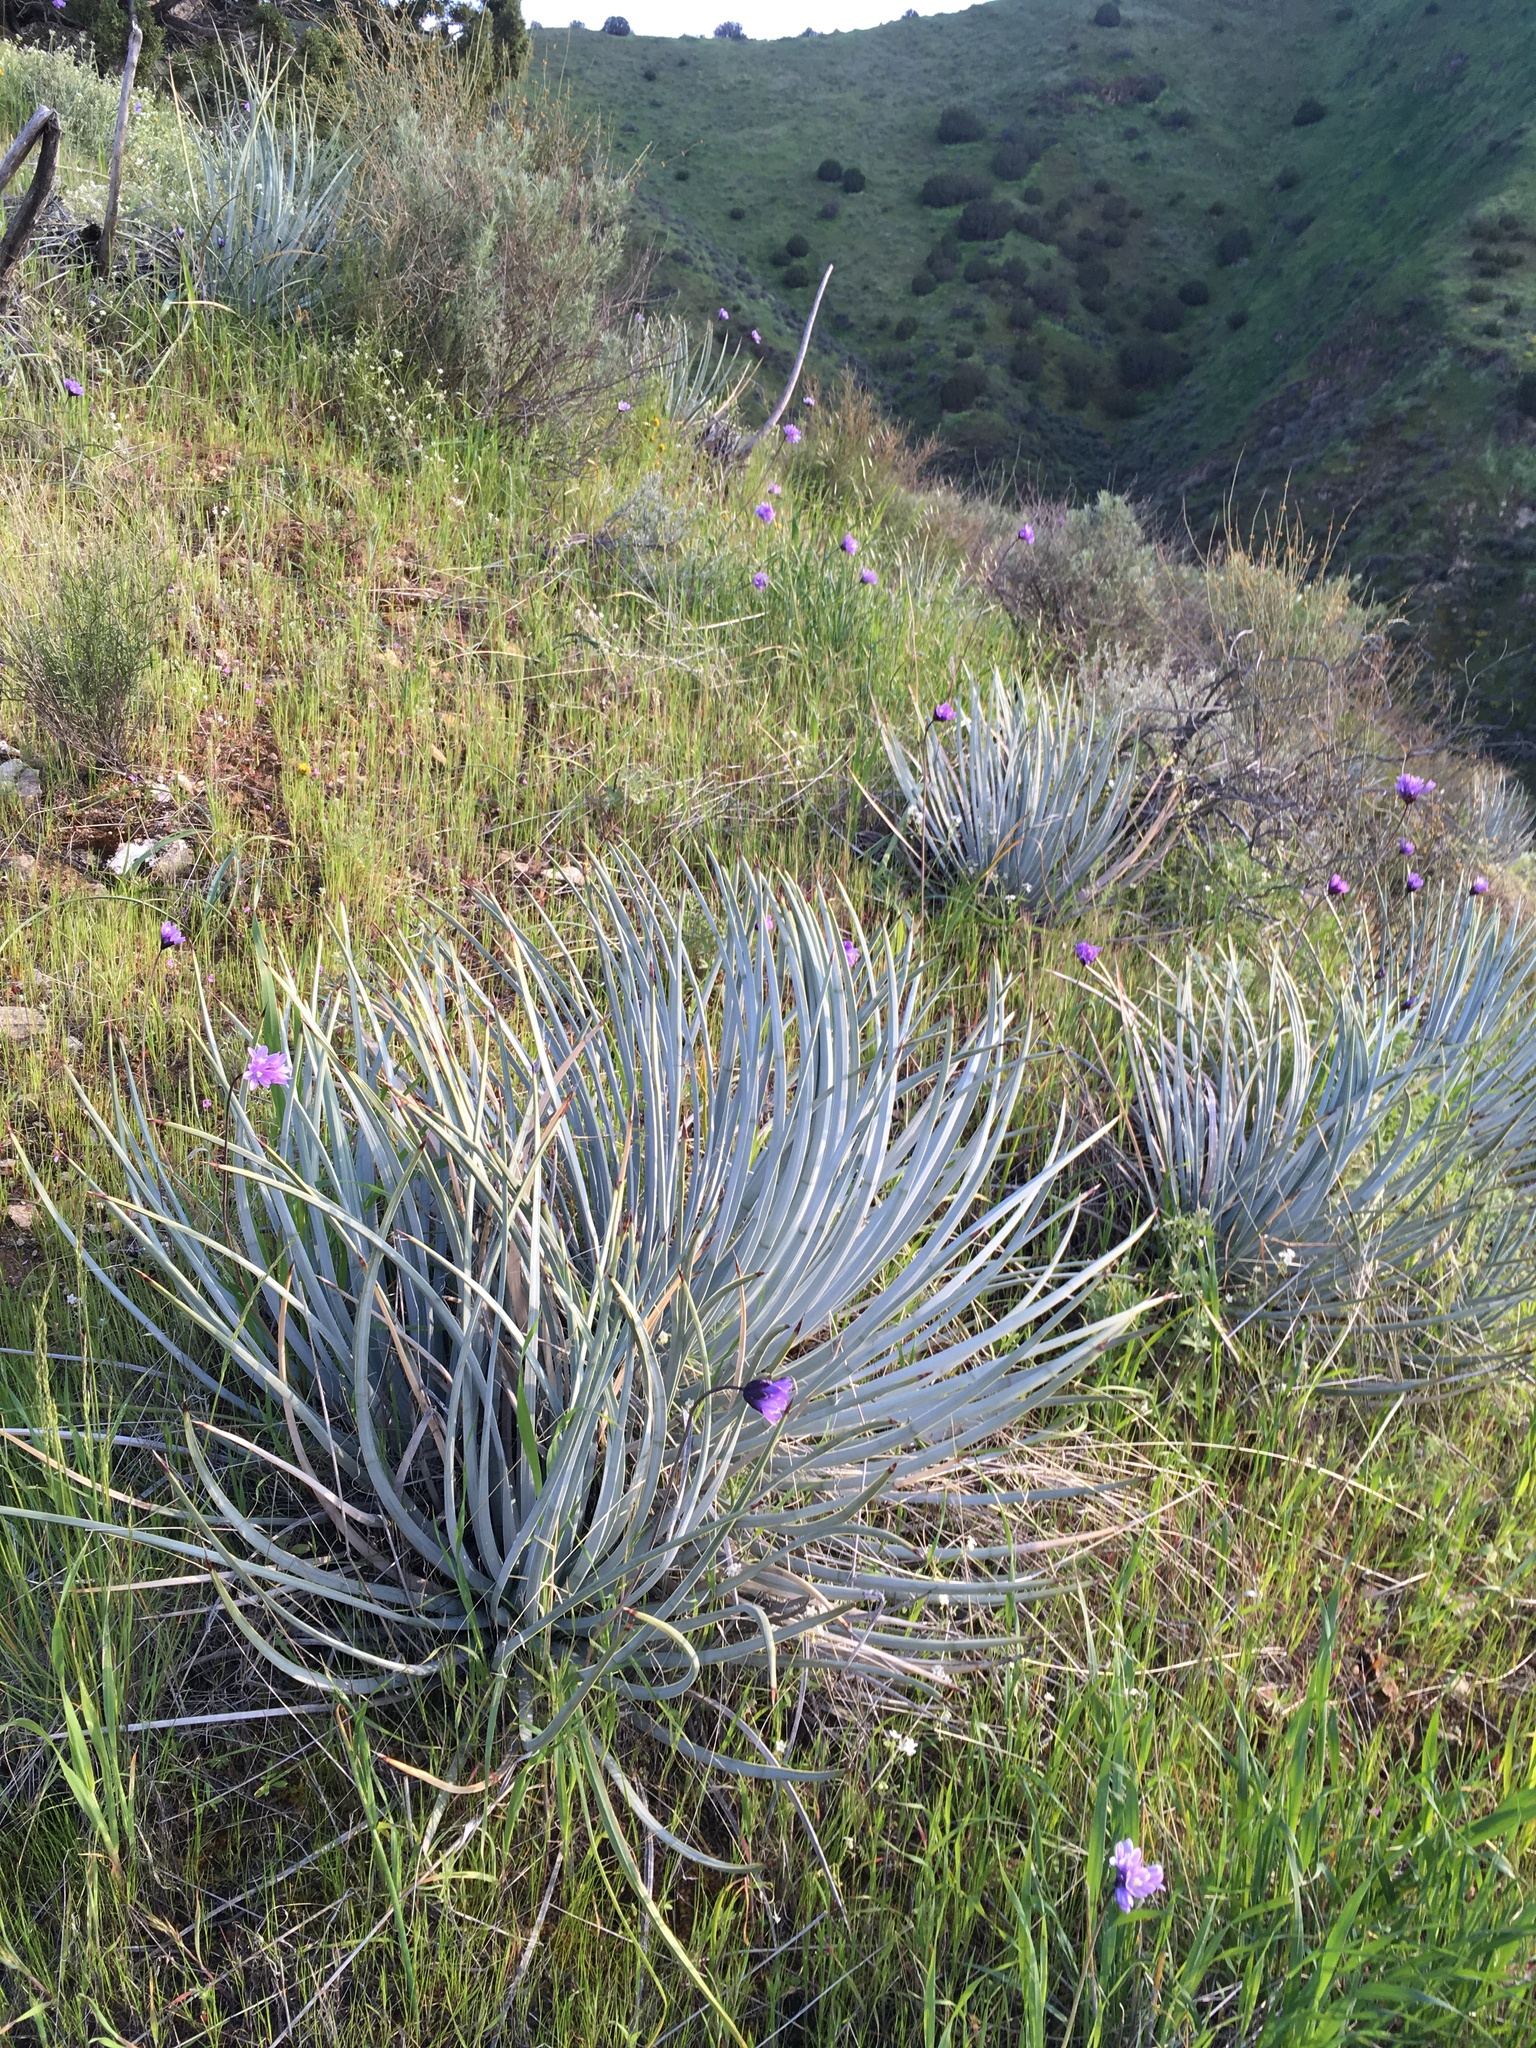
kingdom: Plantae
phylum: Tracheophyta
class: Liliopsida
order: Asparagales
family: Asparagaceae
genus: Hesperoyucca
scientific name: Hesperoyucca whipplei
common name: Our lord's-candle
